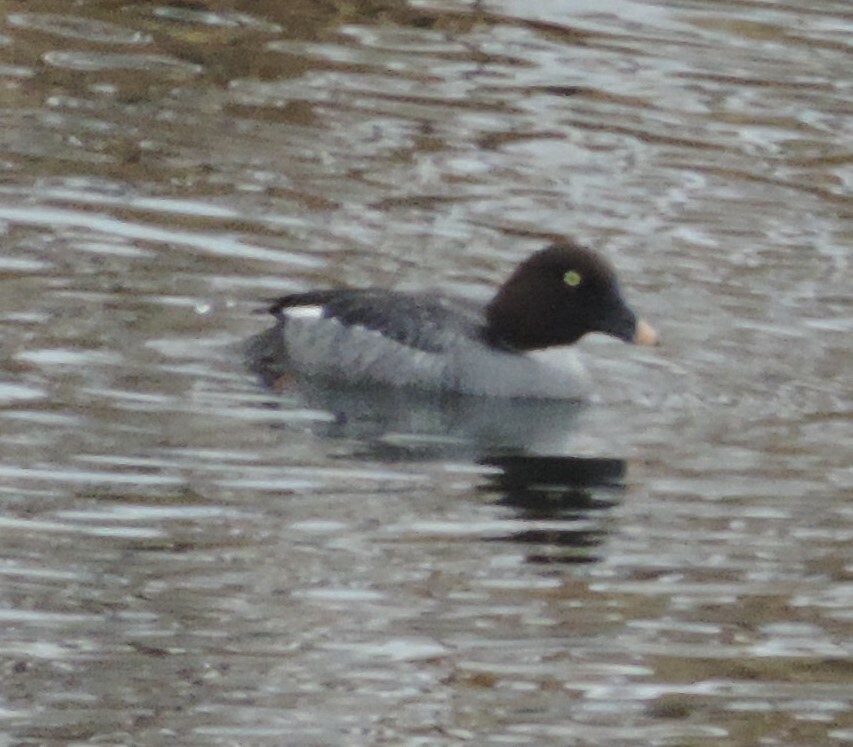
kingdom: Animalia
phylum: Chordata
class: Aves
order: Anseriformes
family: Anatidae
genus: Bucephala
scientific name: Bucephala clangula
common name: Common goldeneye
